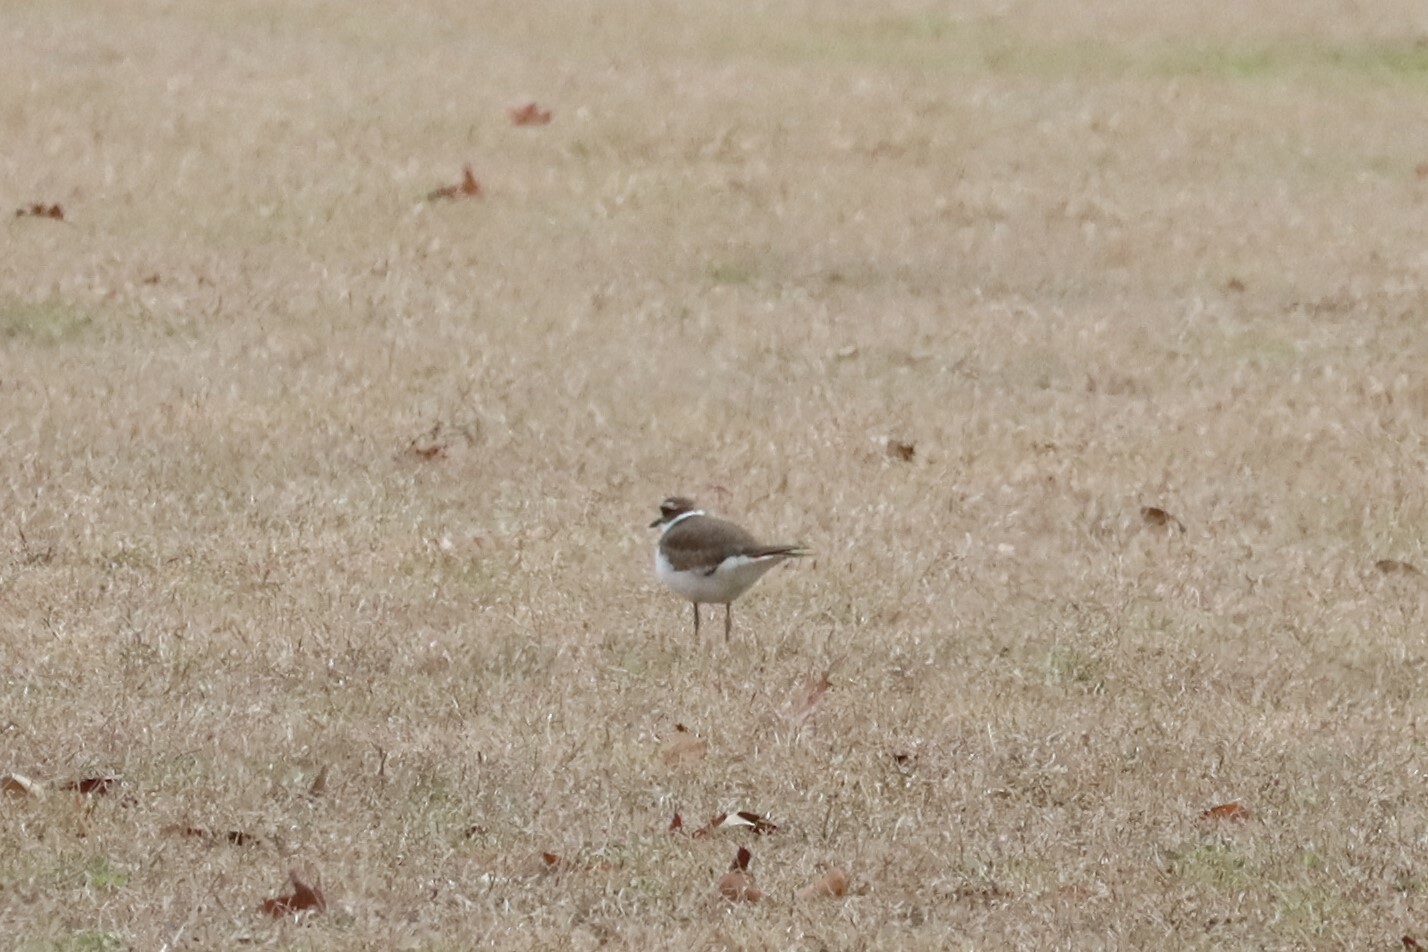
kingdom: Animalia
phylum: Chordata
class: Aves
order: Charadriiformes
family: Charadriidae
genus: Charadrius
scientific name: Charadrius vociferus
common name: Killdeer
